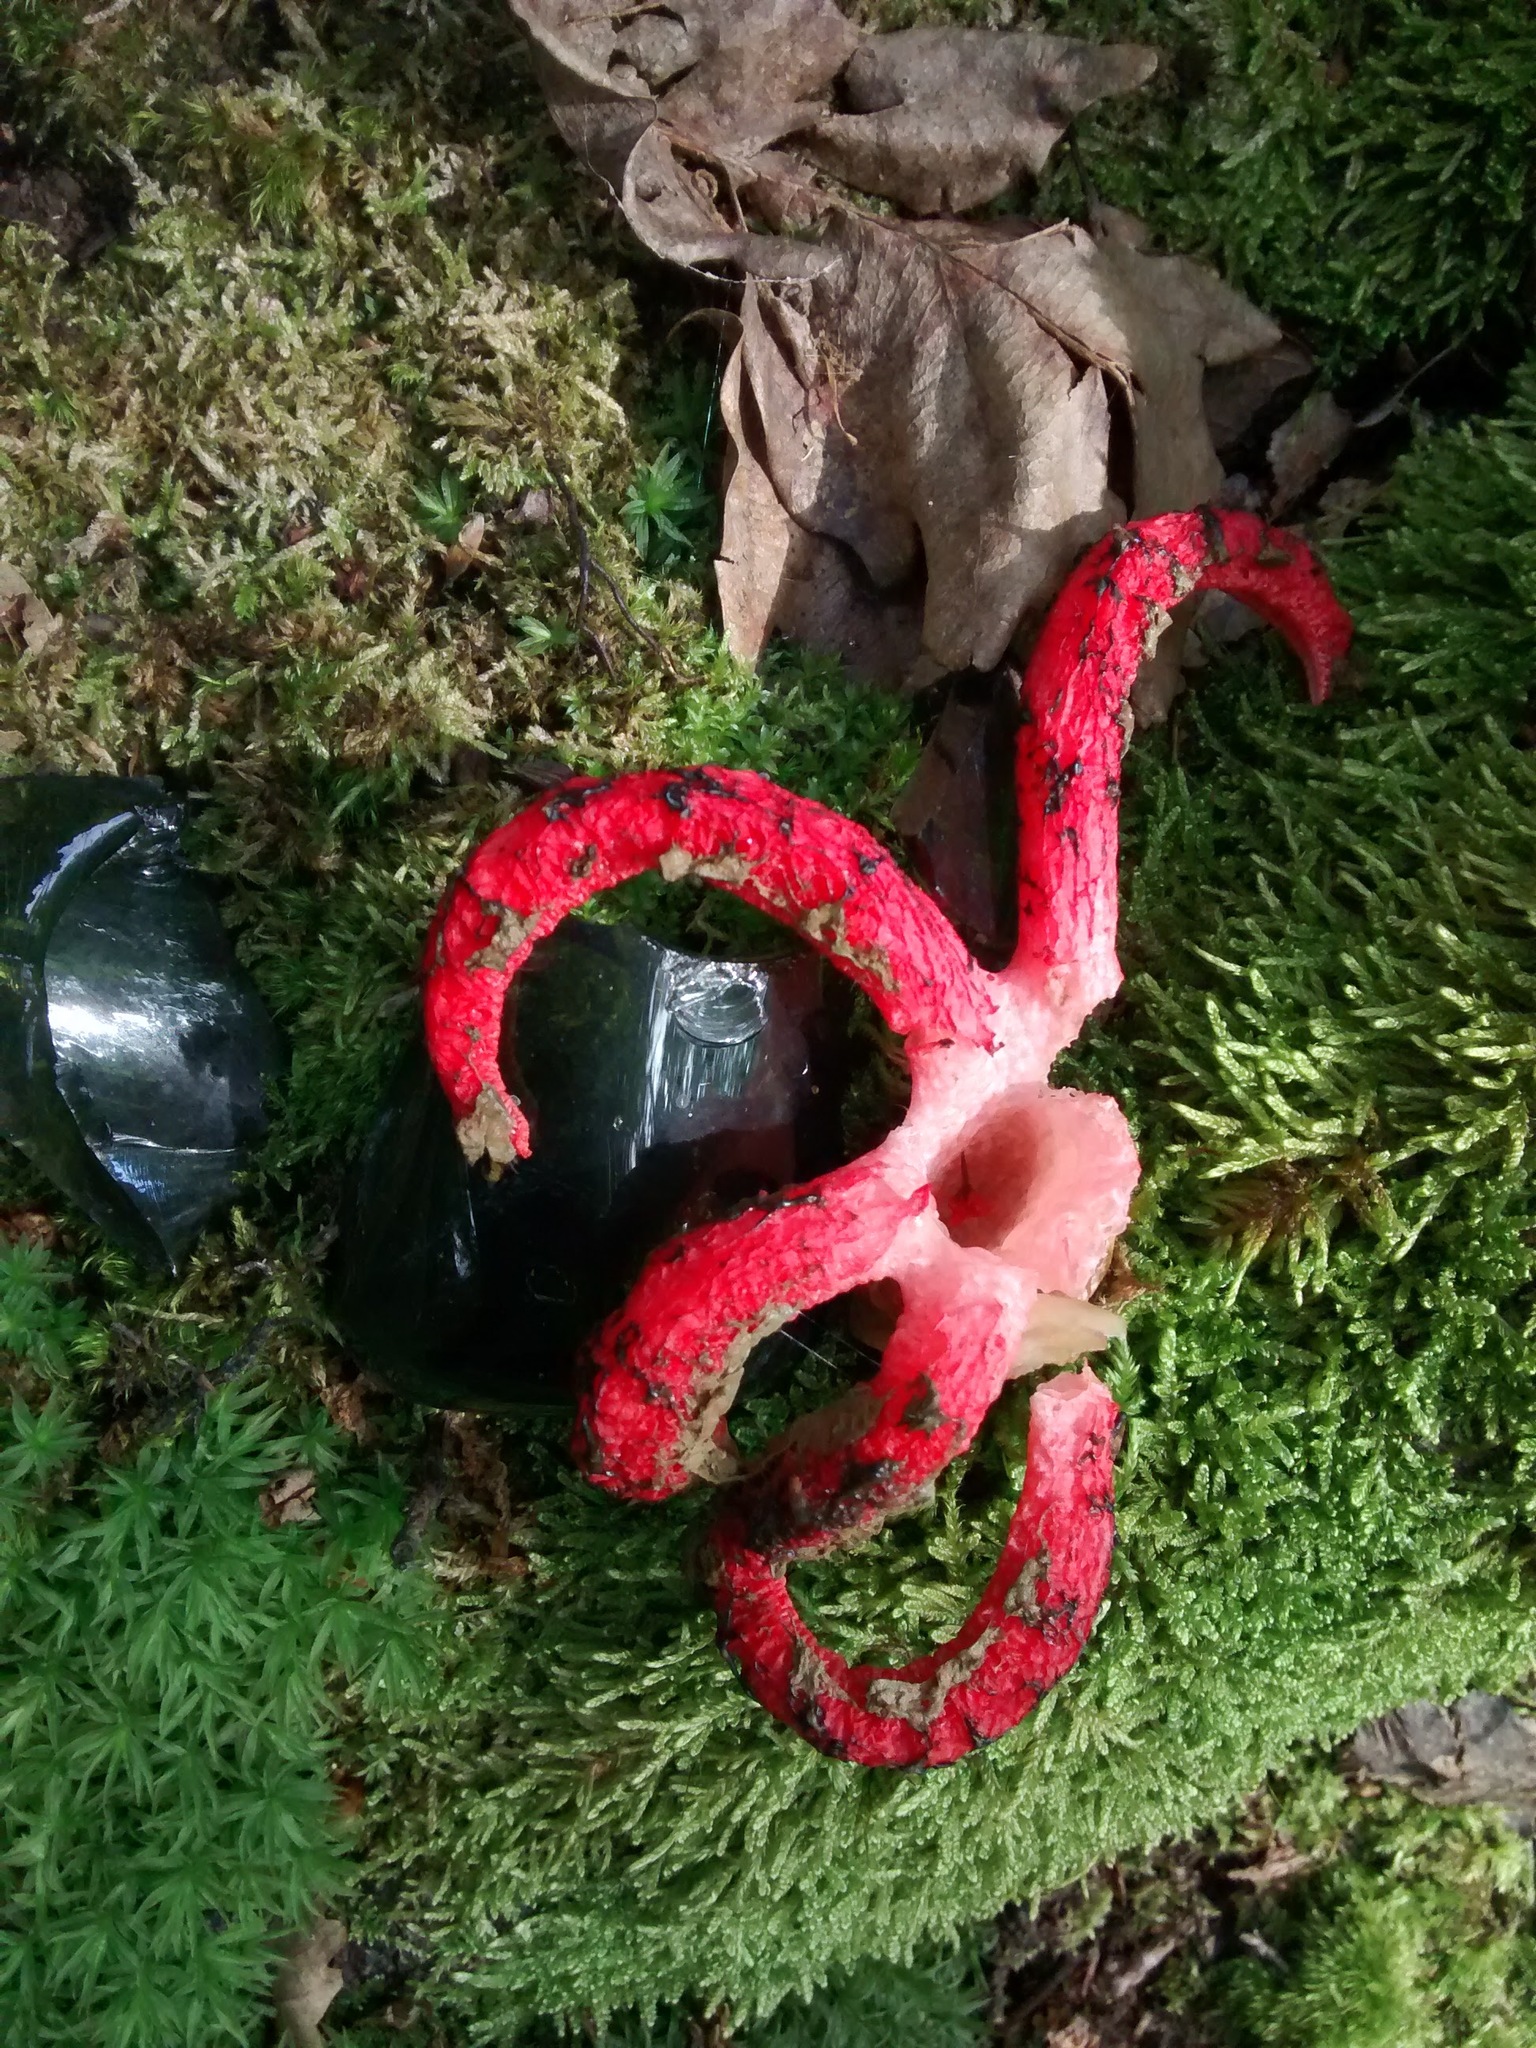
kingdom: Fungi
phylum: Basidiomycota
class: Agaricomycetes
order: Phallales
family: Phallaceae
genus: Clathrus
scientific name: Clathrus archeri
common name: Devil's fingers
